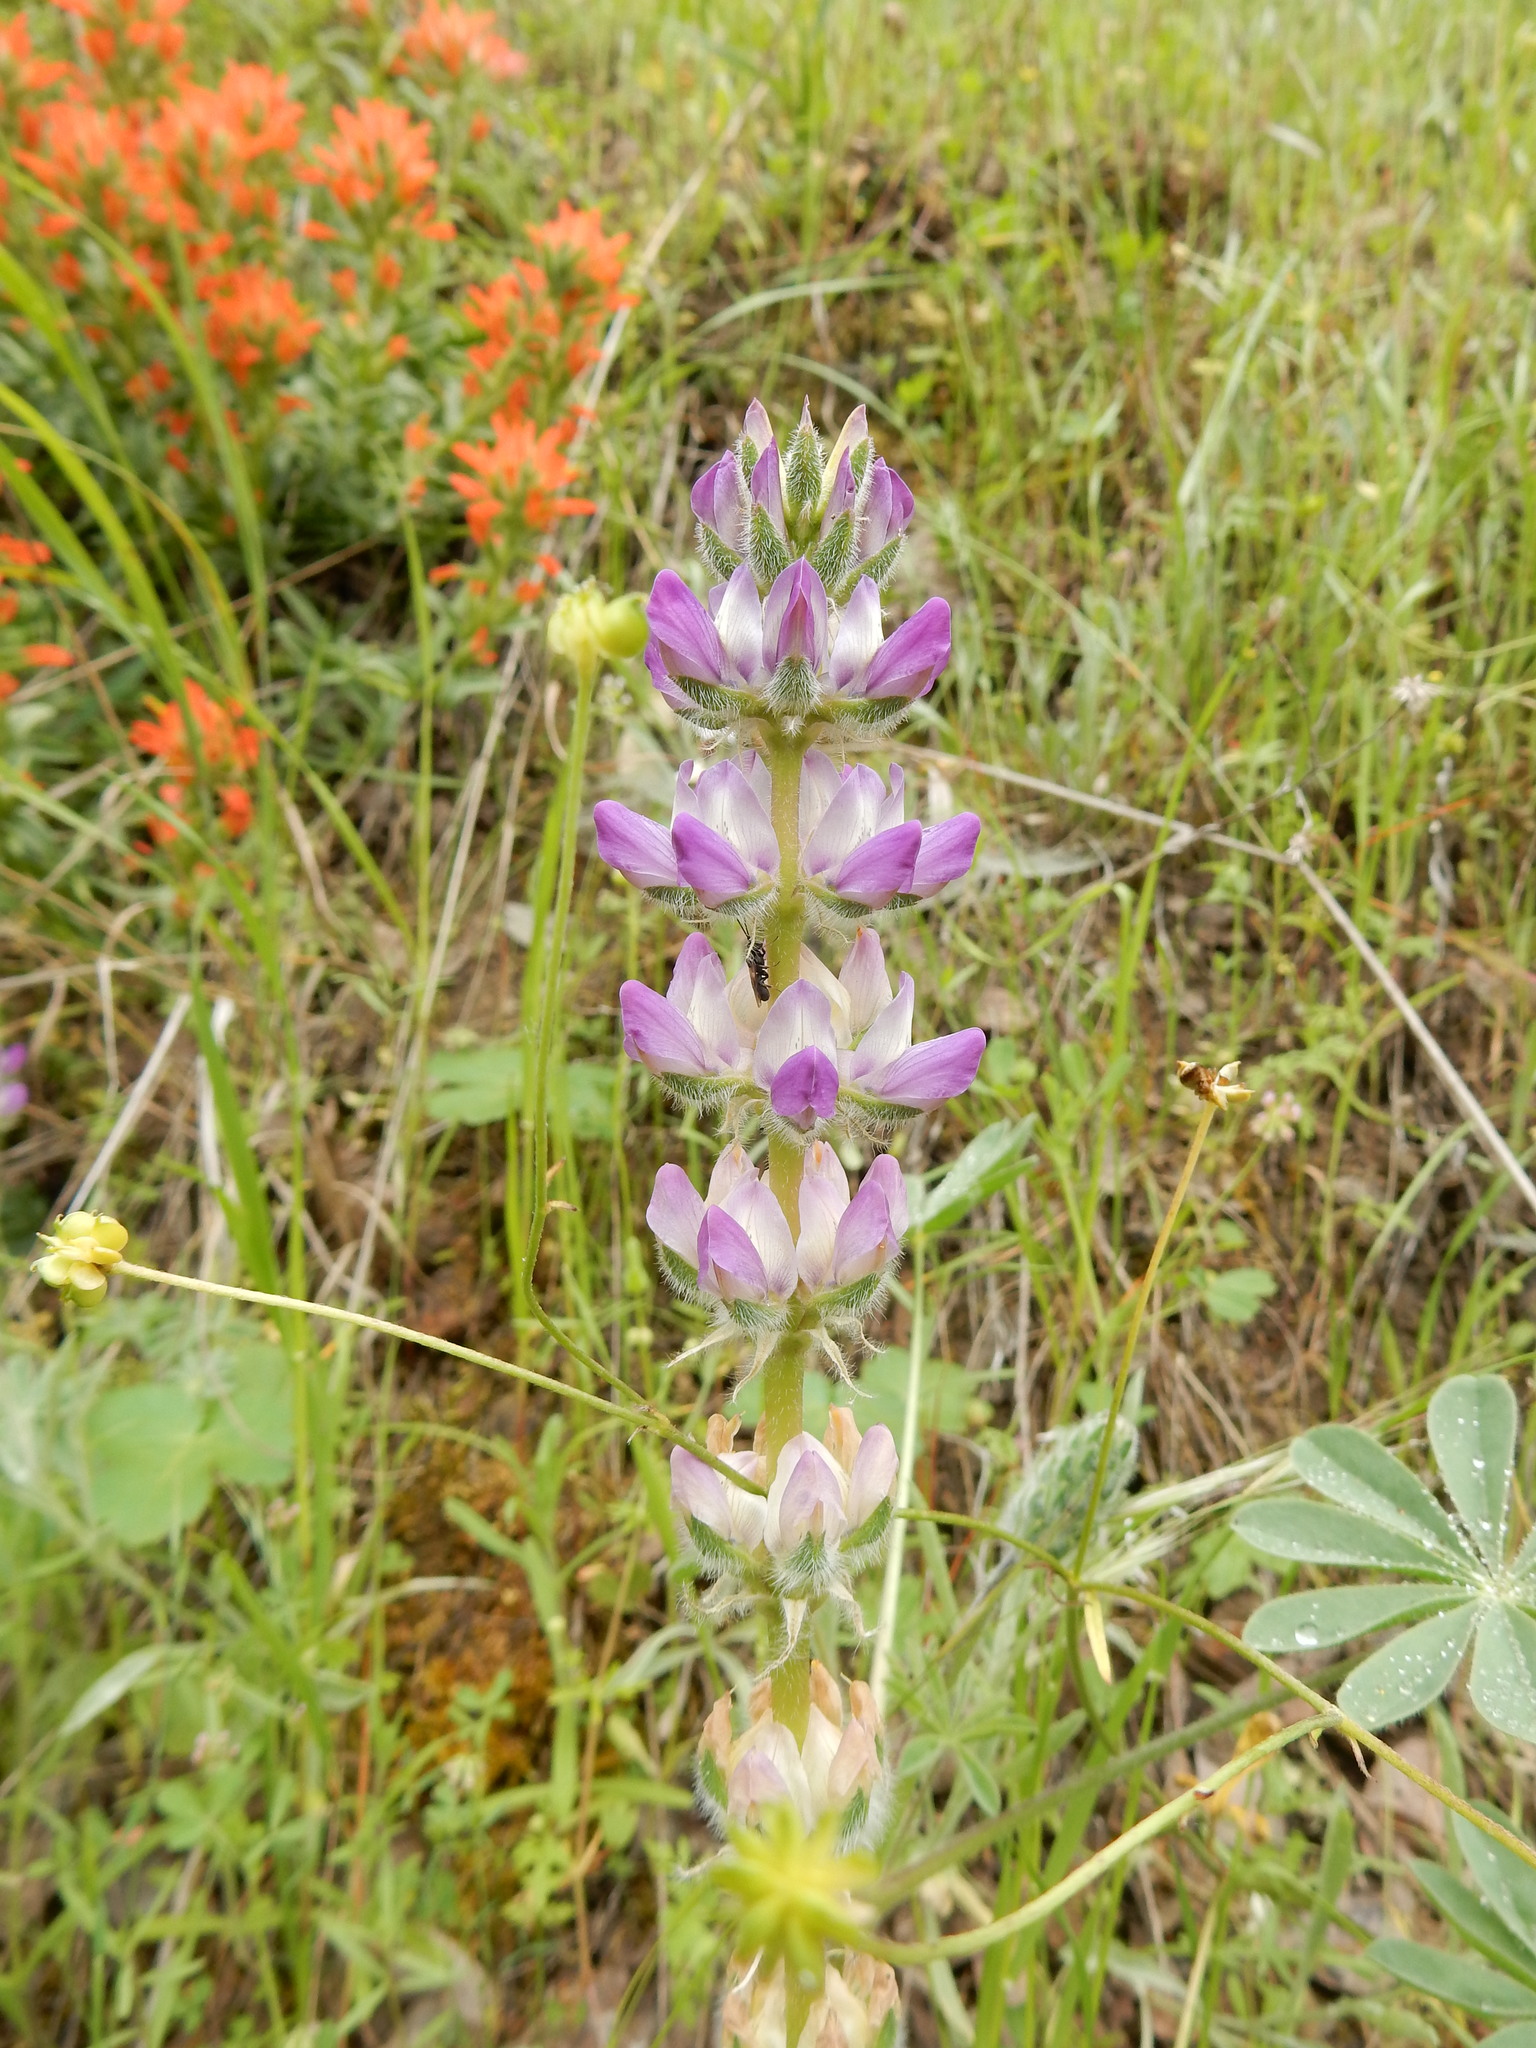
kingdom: Plantae
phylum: Tracheophyta
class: Magnoliopsida
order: Fabales
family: Fabaceae
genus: Lupinus
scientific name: Lupinus microcarpus
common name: Chick lupine
